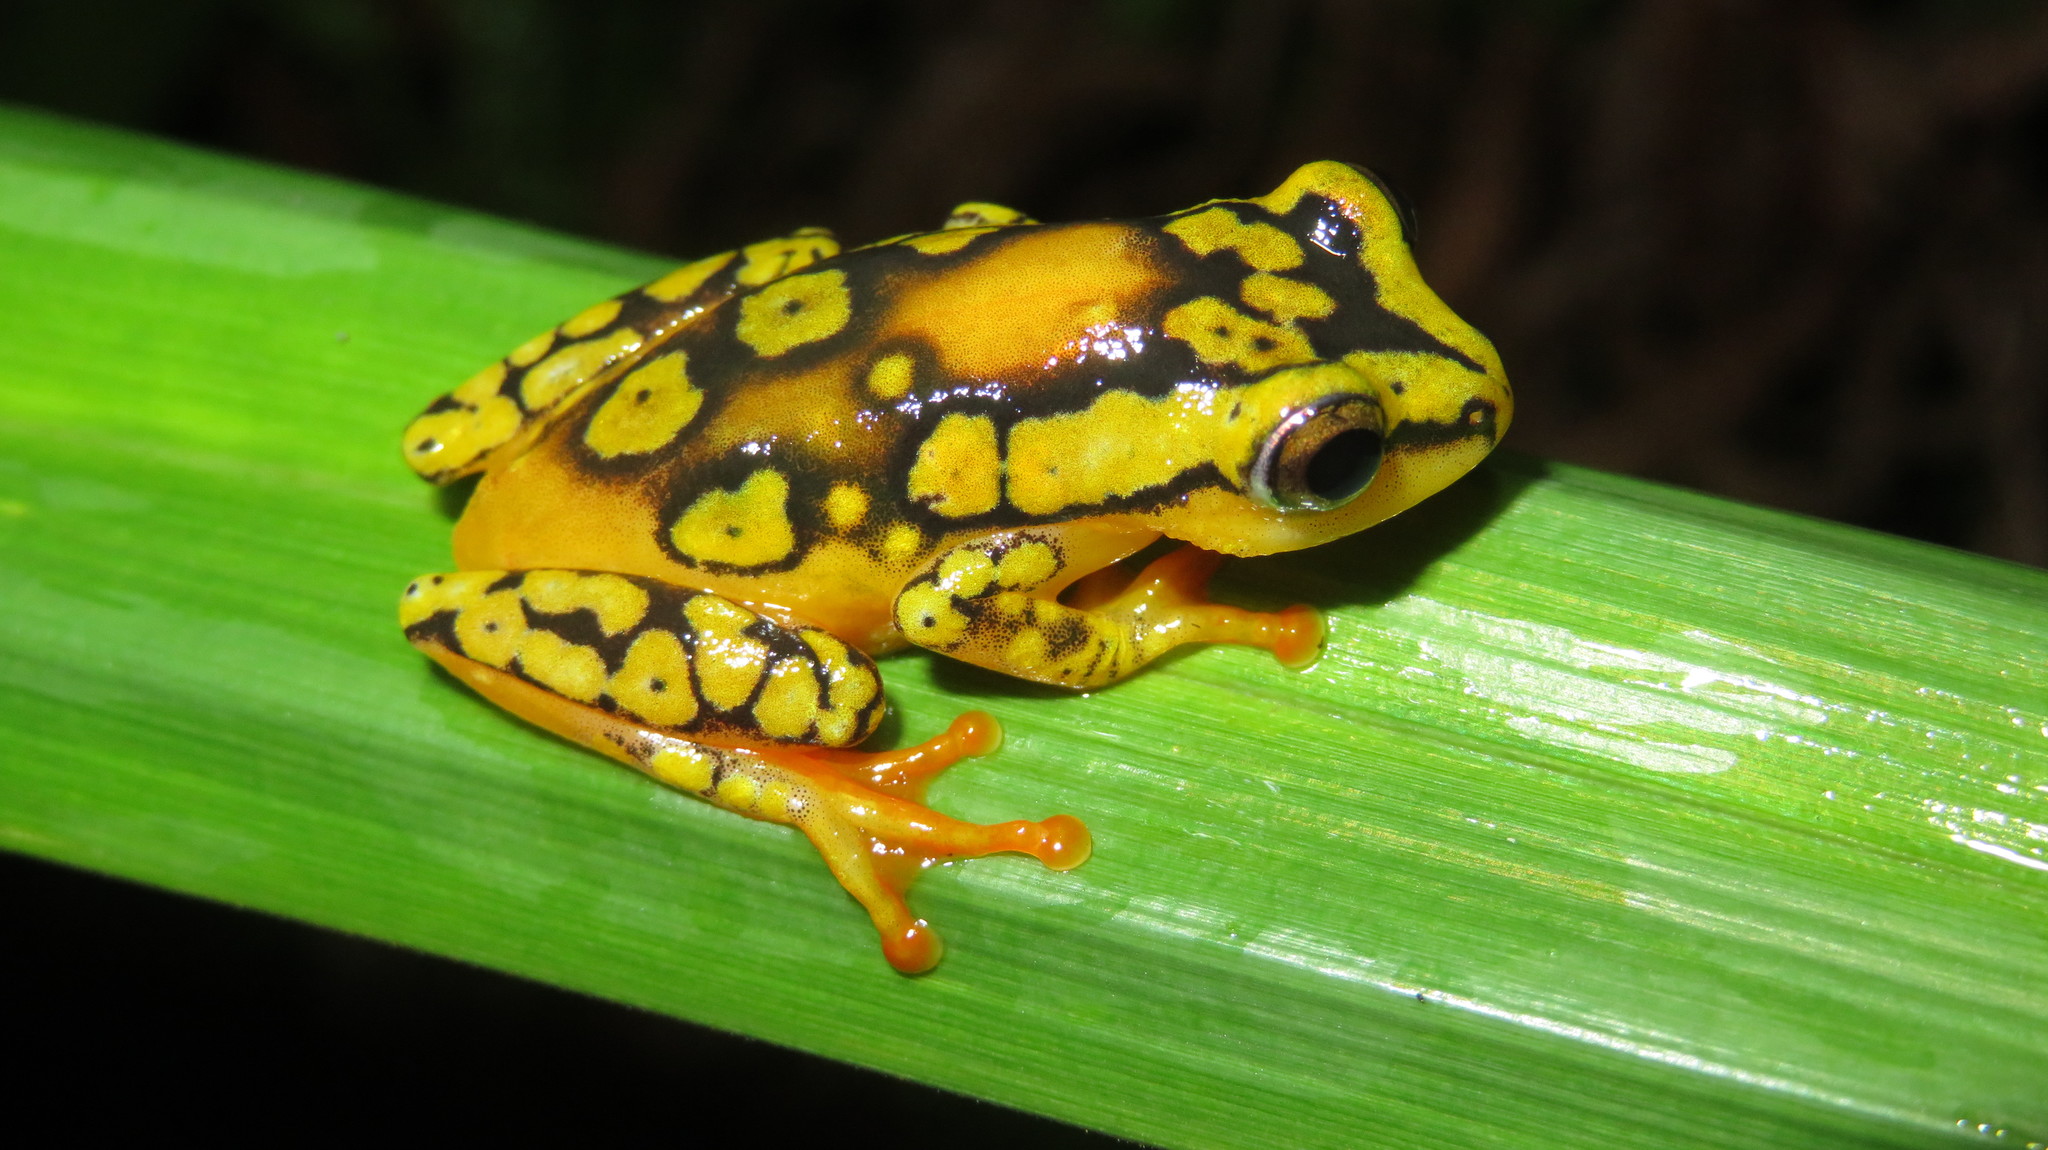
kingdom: Animalia
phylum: Chordata
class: Amphibia
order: Anura
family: Hyperoliidae
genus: Hyperolius
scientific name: Hyperolius substriatus
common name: Spotted reed frog
